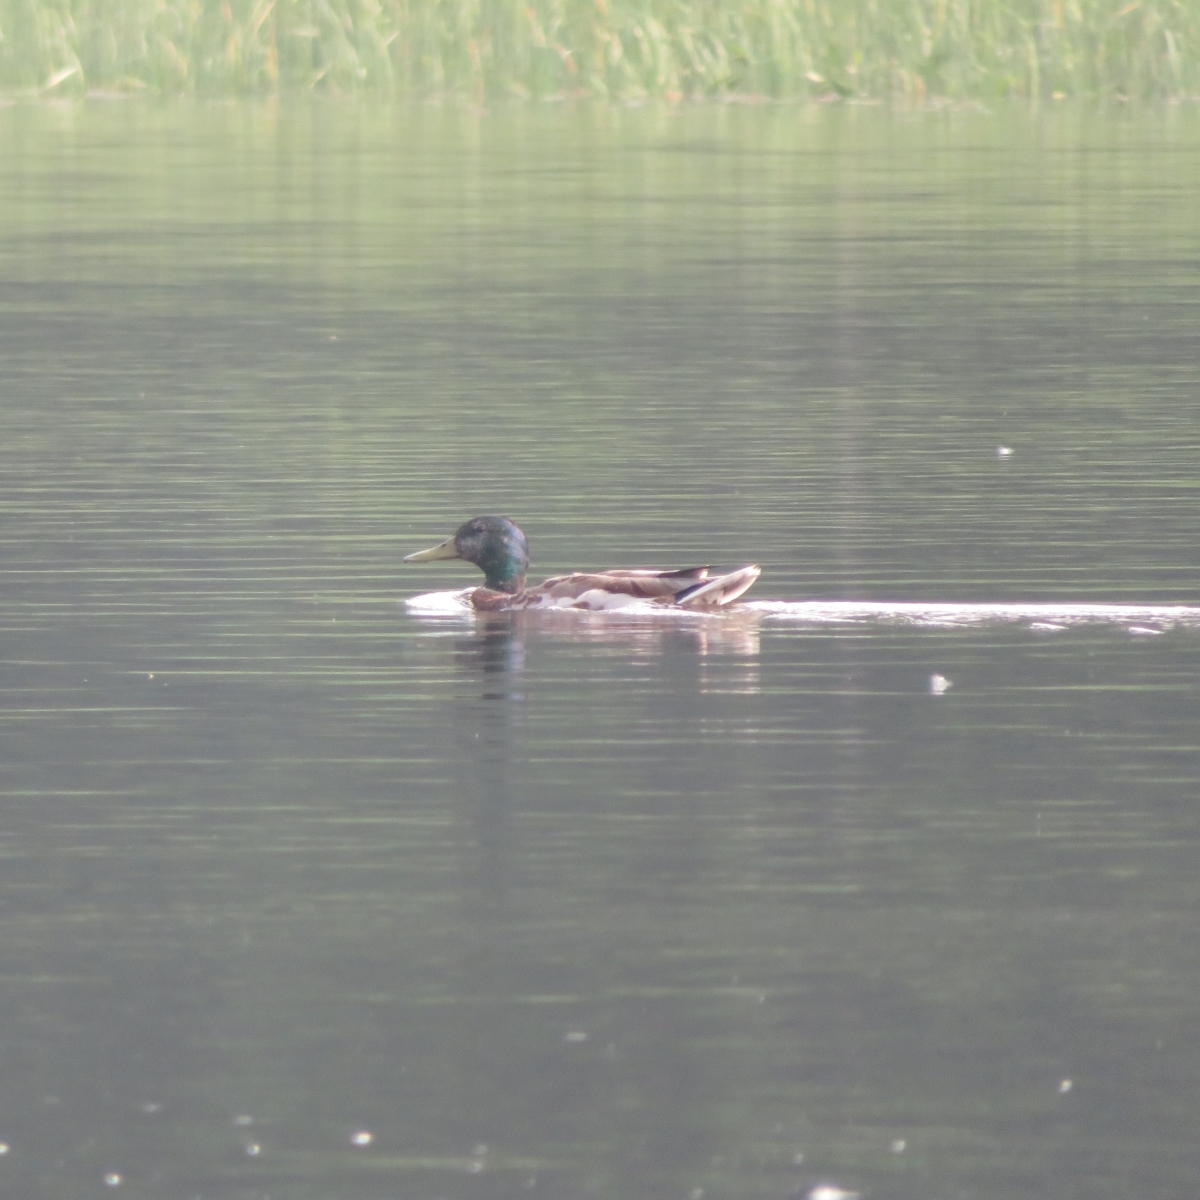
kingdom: Animalia
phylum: Chordata
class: Aves
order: Anseriformes
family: Anatidae
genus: Anas
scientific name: Anas platyrhynchos
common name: Mallard
